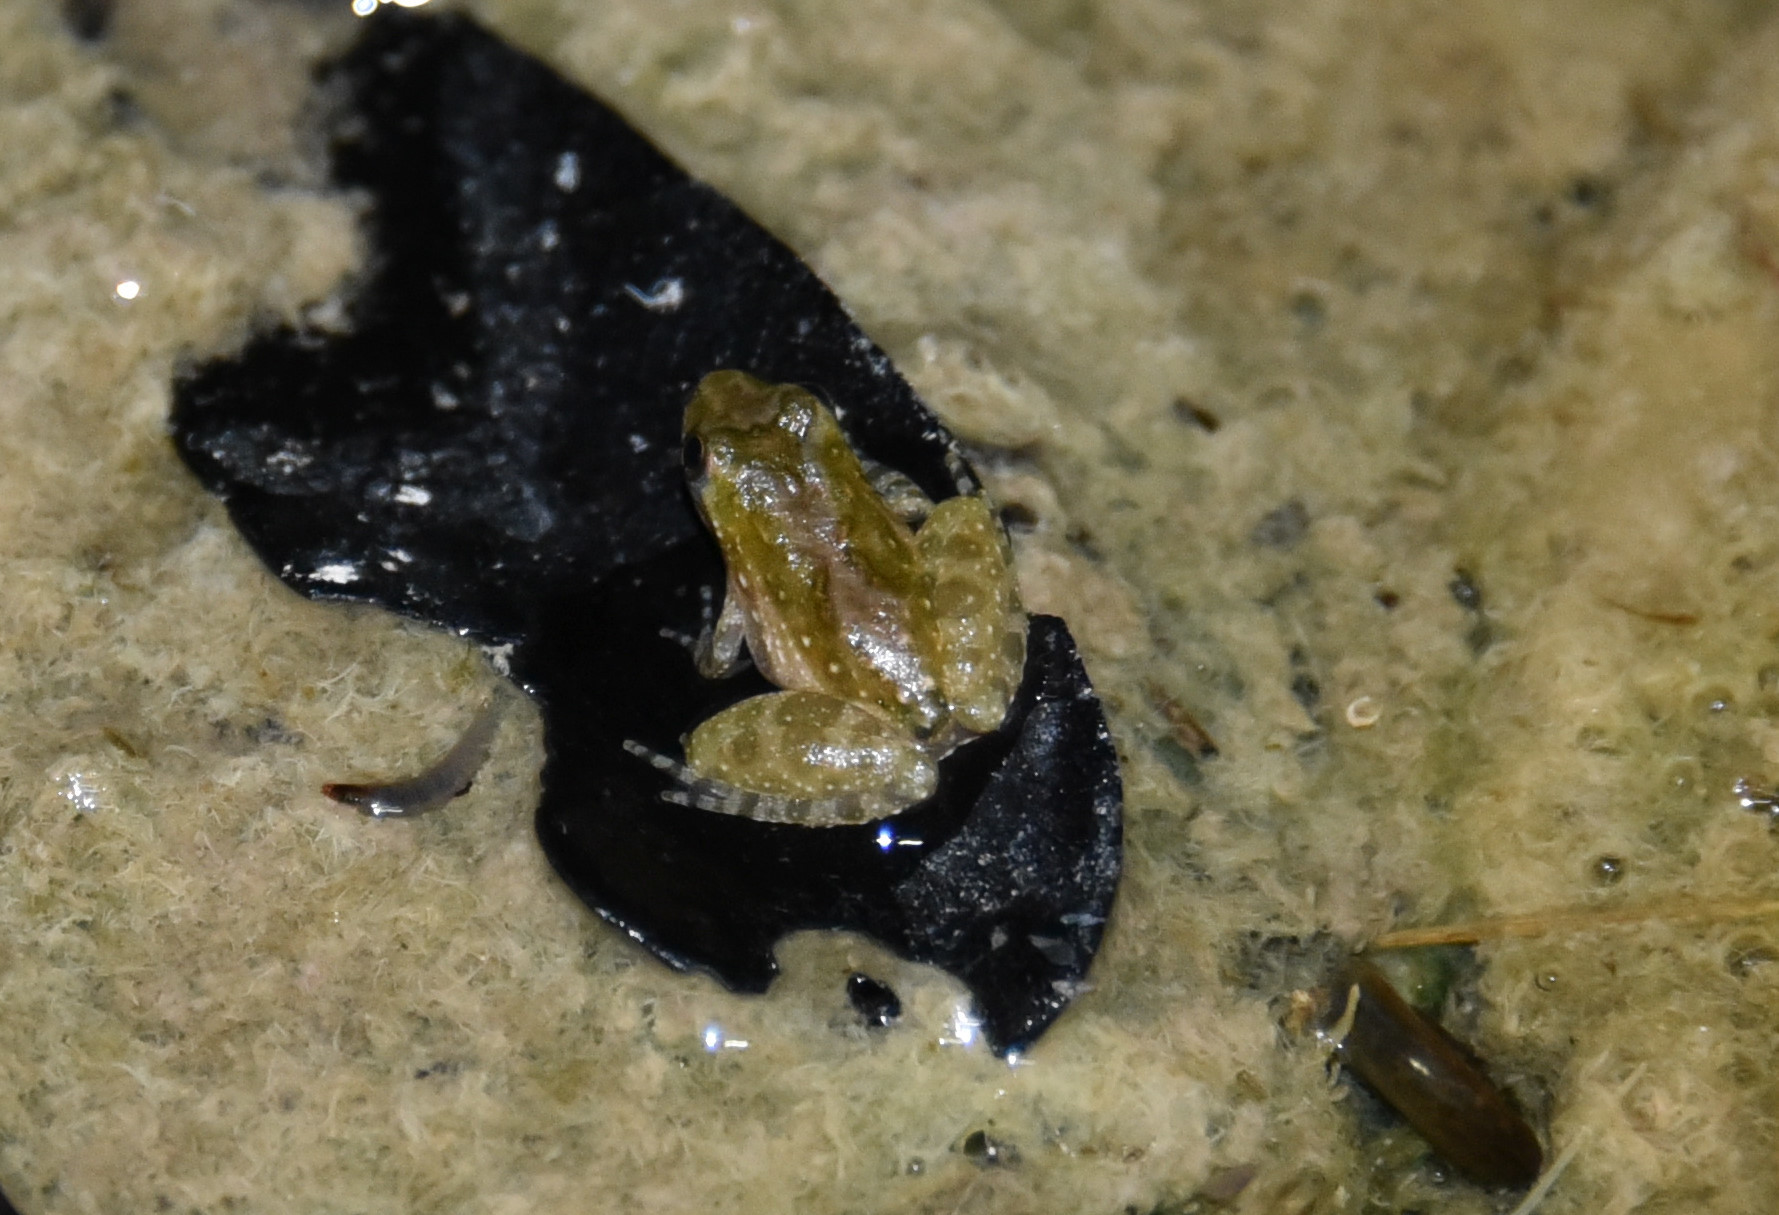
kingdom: Animalia
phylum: Chordata
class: Amphibia
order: Anura
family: Hylidae
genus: Acris
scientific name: Acris blanchardi
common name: Blanchard's cricket frog
